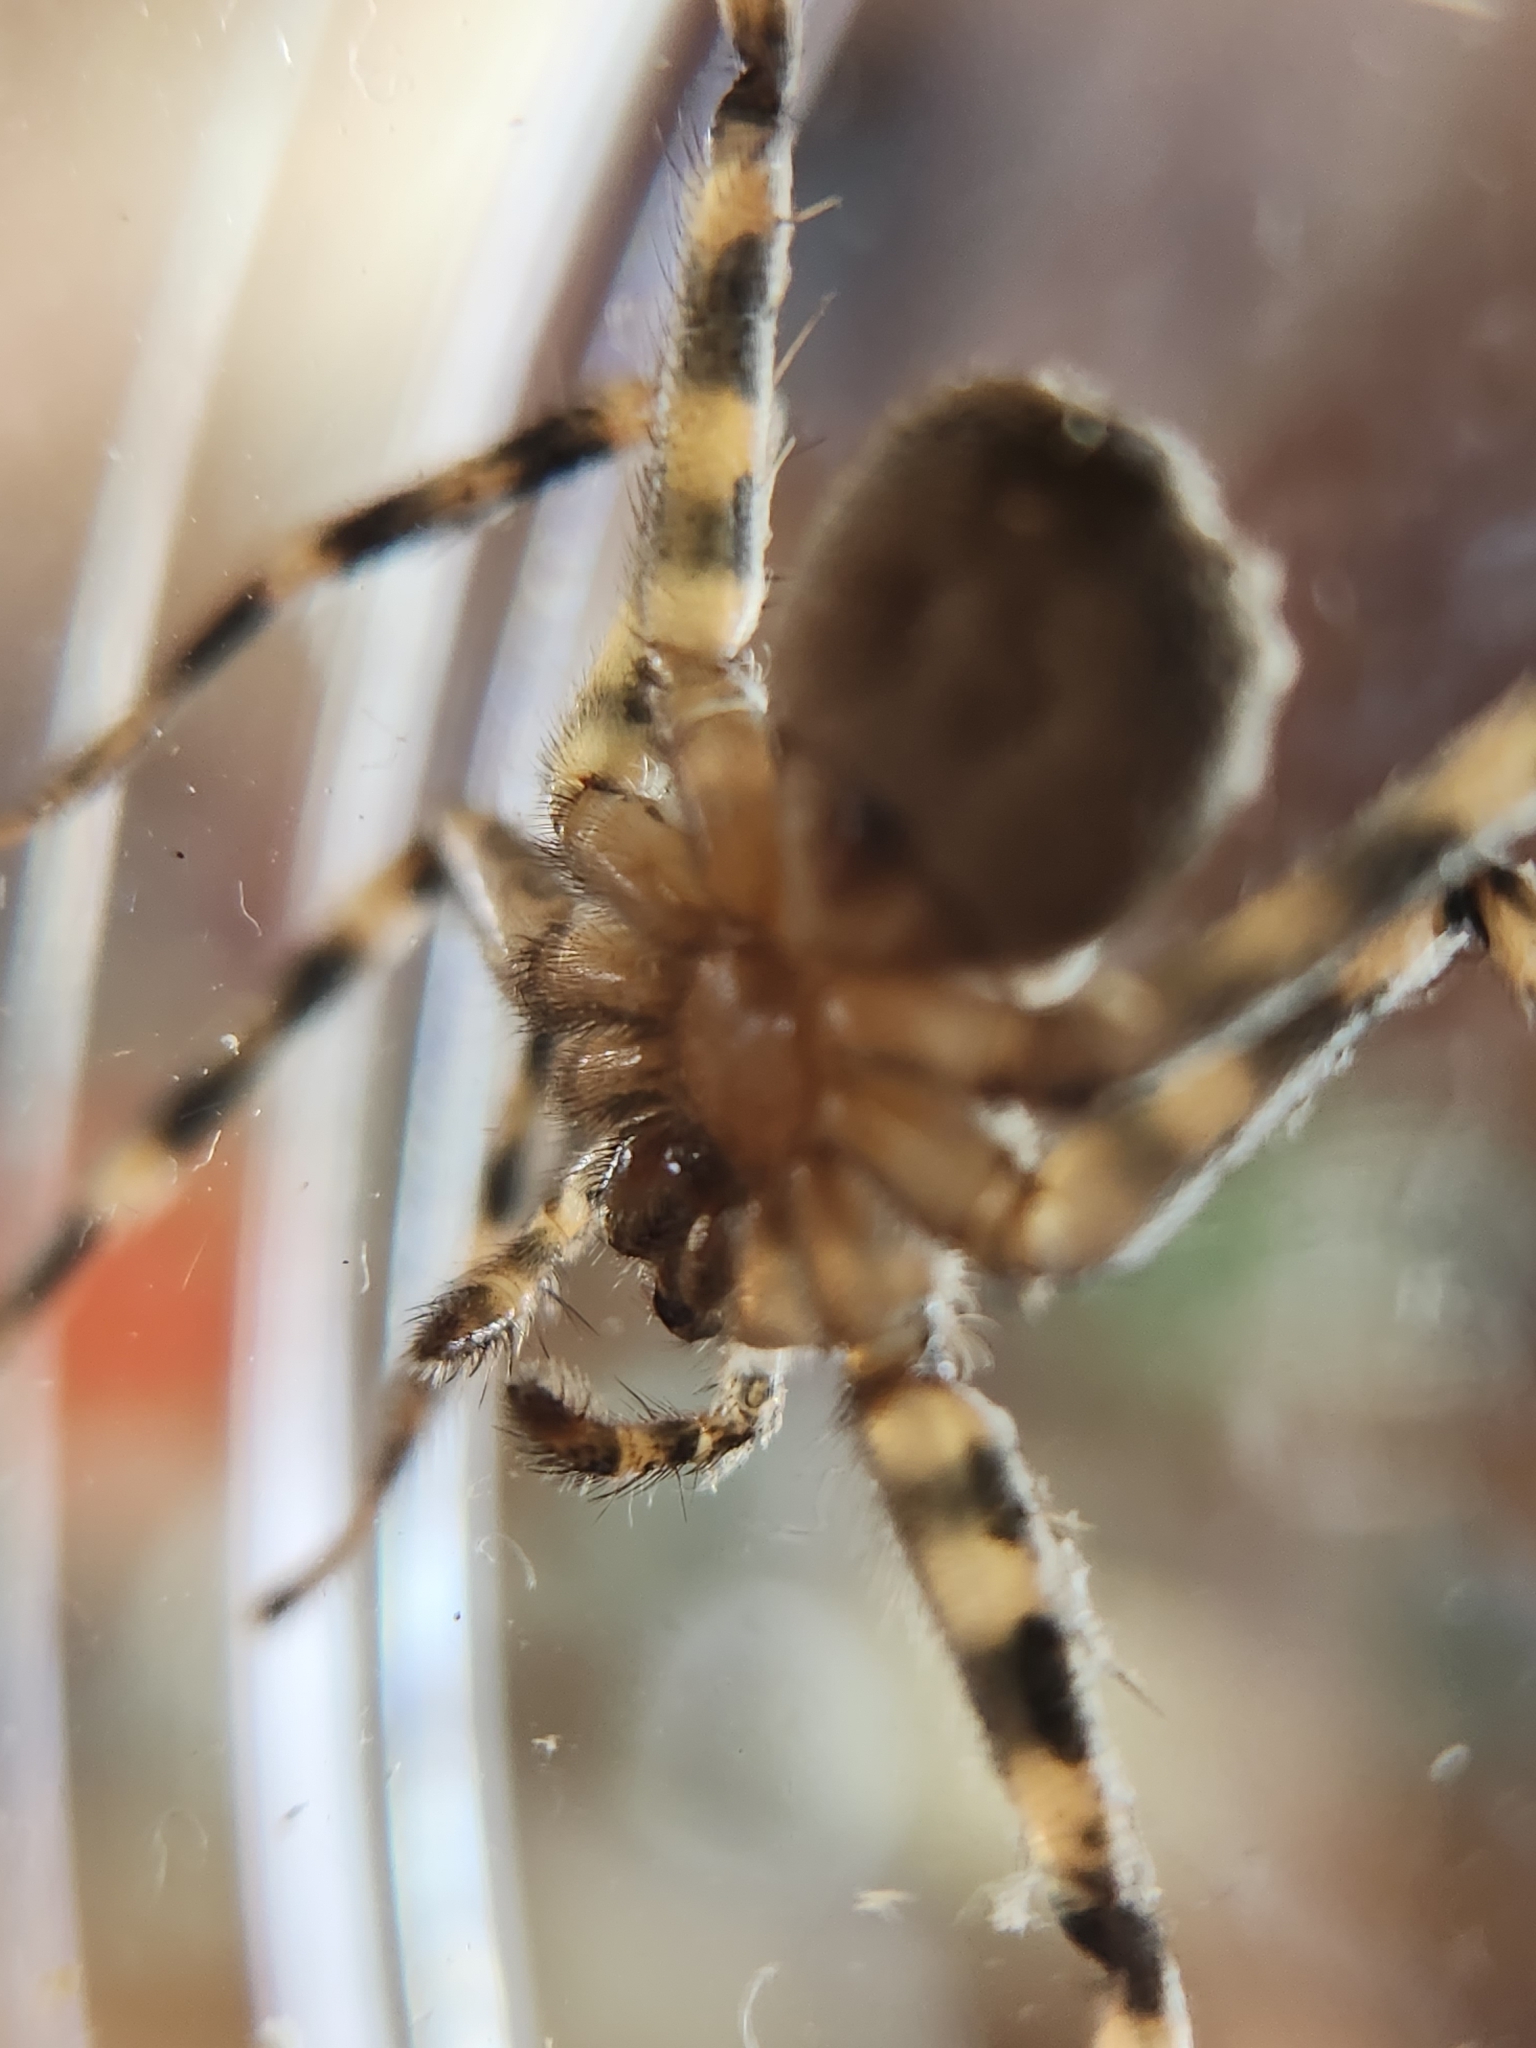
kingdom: Animalia
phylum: Arthropoda
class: Arachnida
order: Araneae
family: Selenopidae
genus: Selenops
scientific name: Selenops actophilus
